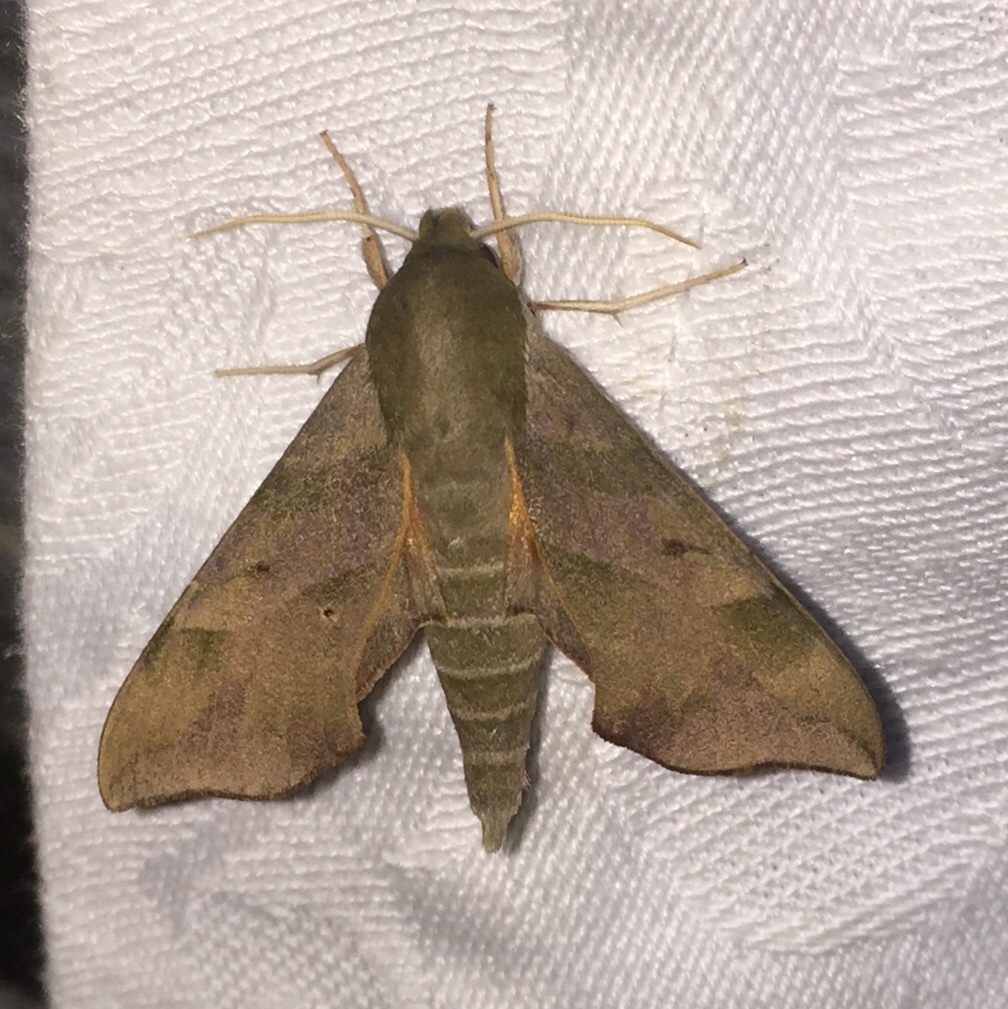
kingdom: Animalia
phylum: Arthropoda
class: Insecta
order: Lepidoptera
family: Sphingidae
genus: Darapsa
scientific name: Darapsa myron
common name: Hog sphinx
